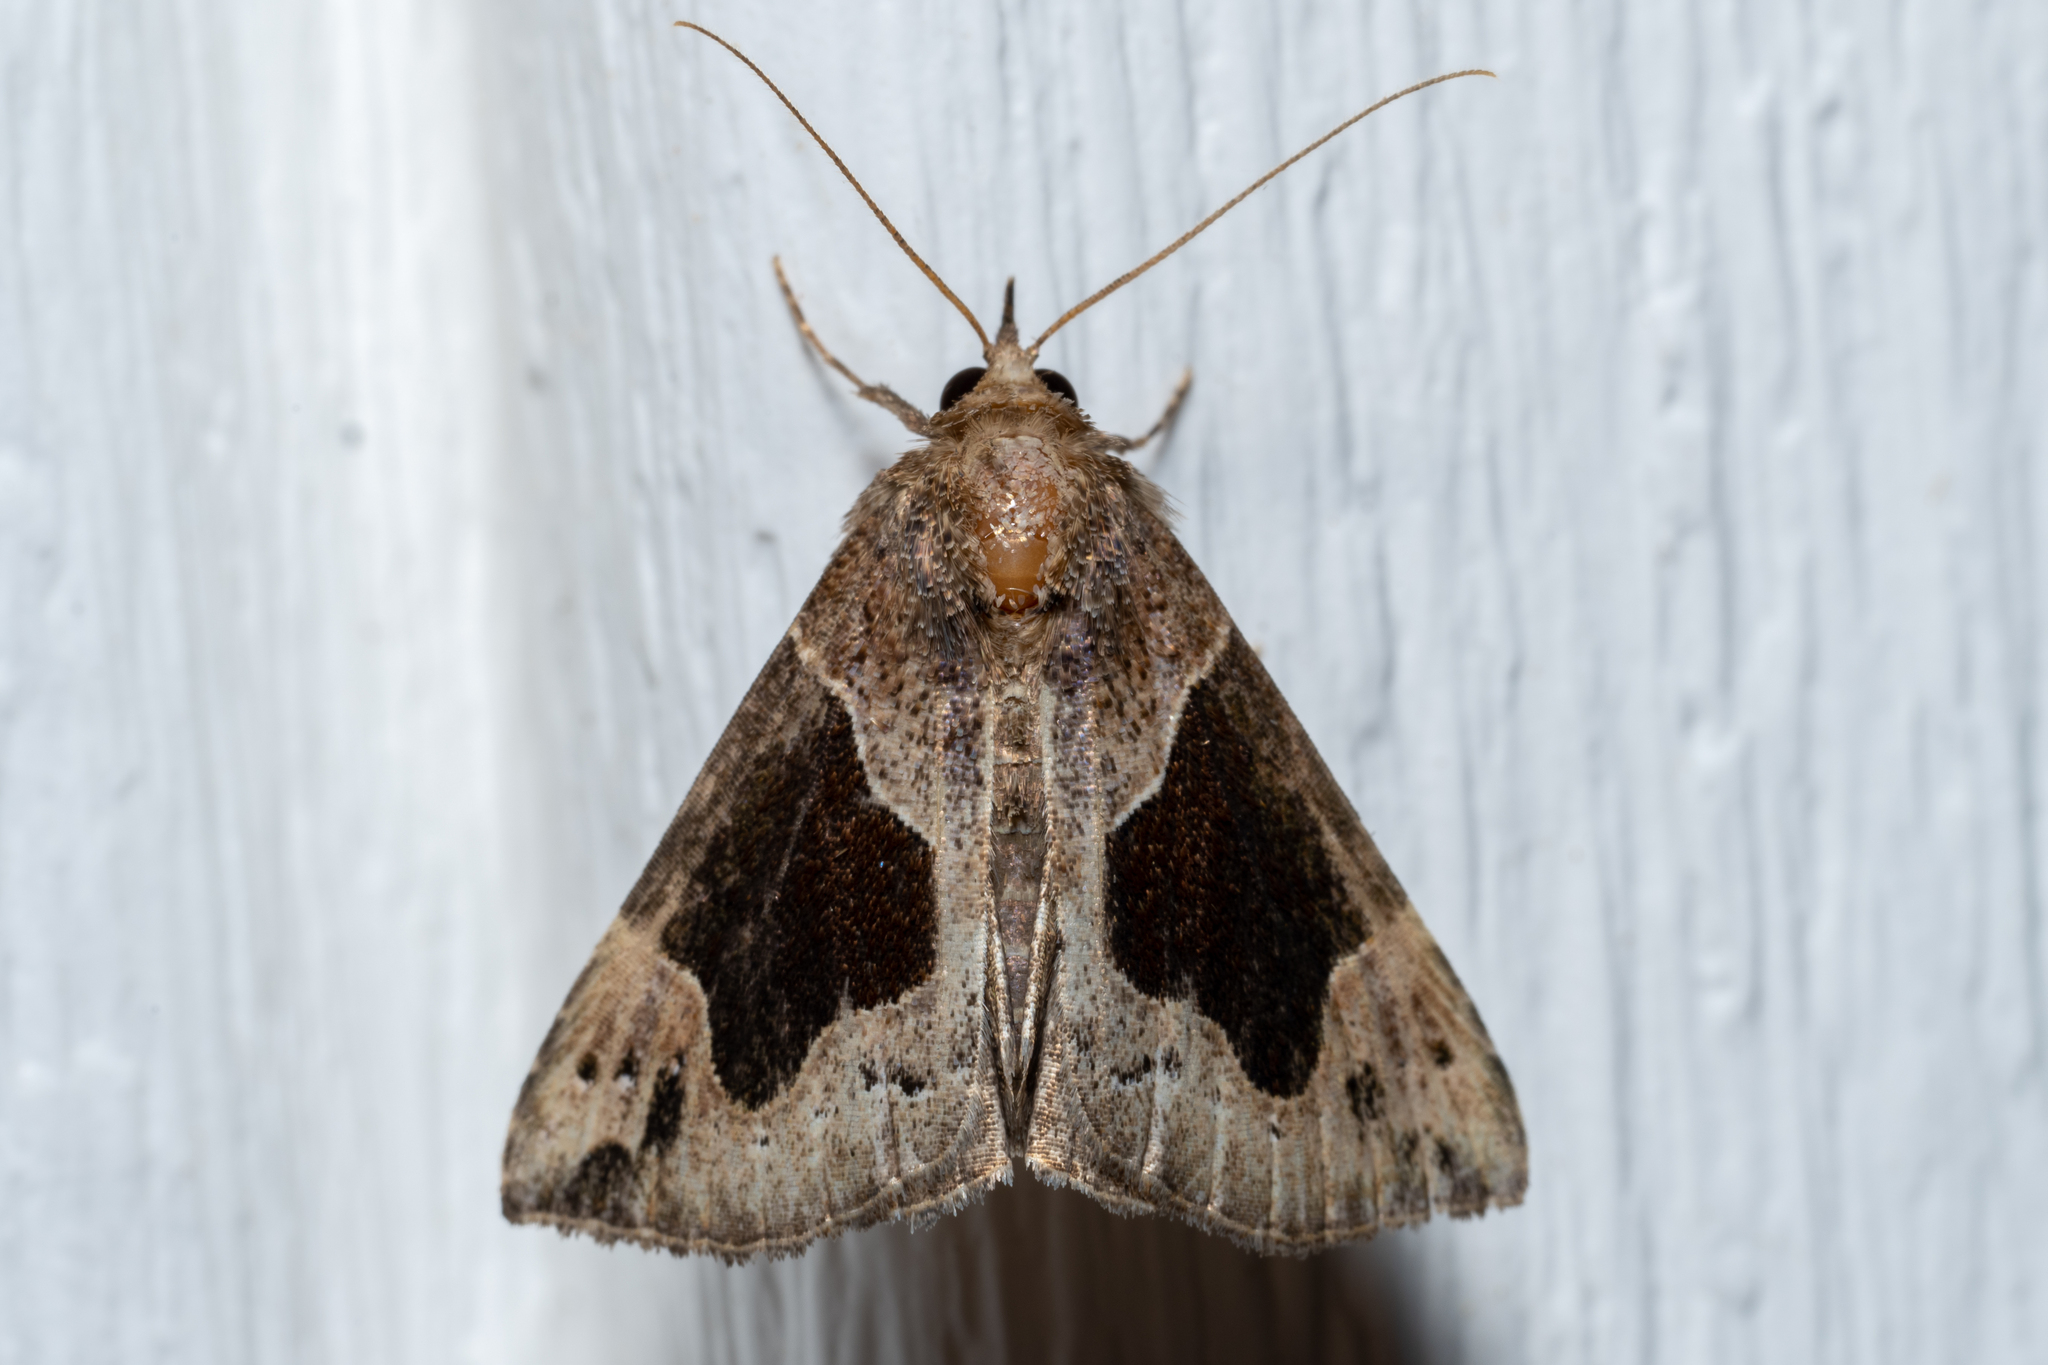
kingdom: Animalia
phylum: Arthropoda
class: Insecta
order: Lepidoptera
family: Erebidae
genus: Hypena
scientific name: Hypena manalis
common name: Flowing-line bomolocha moth
